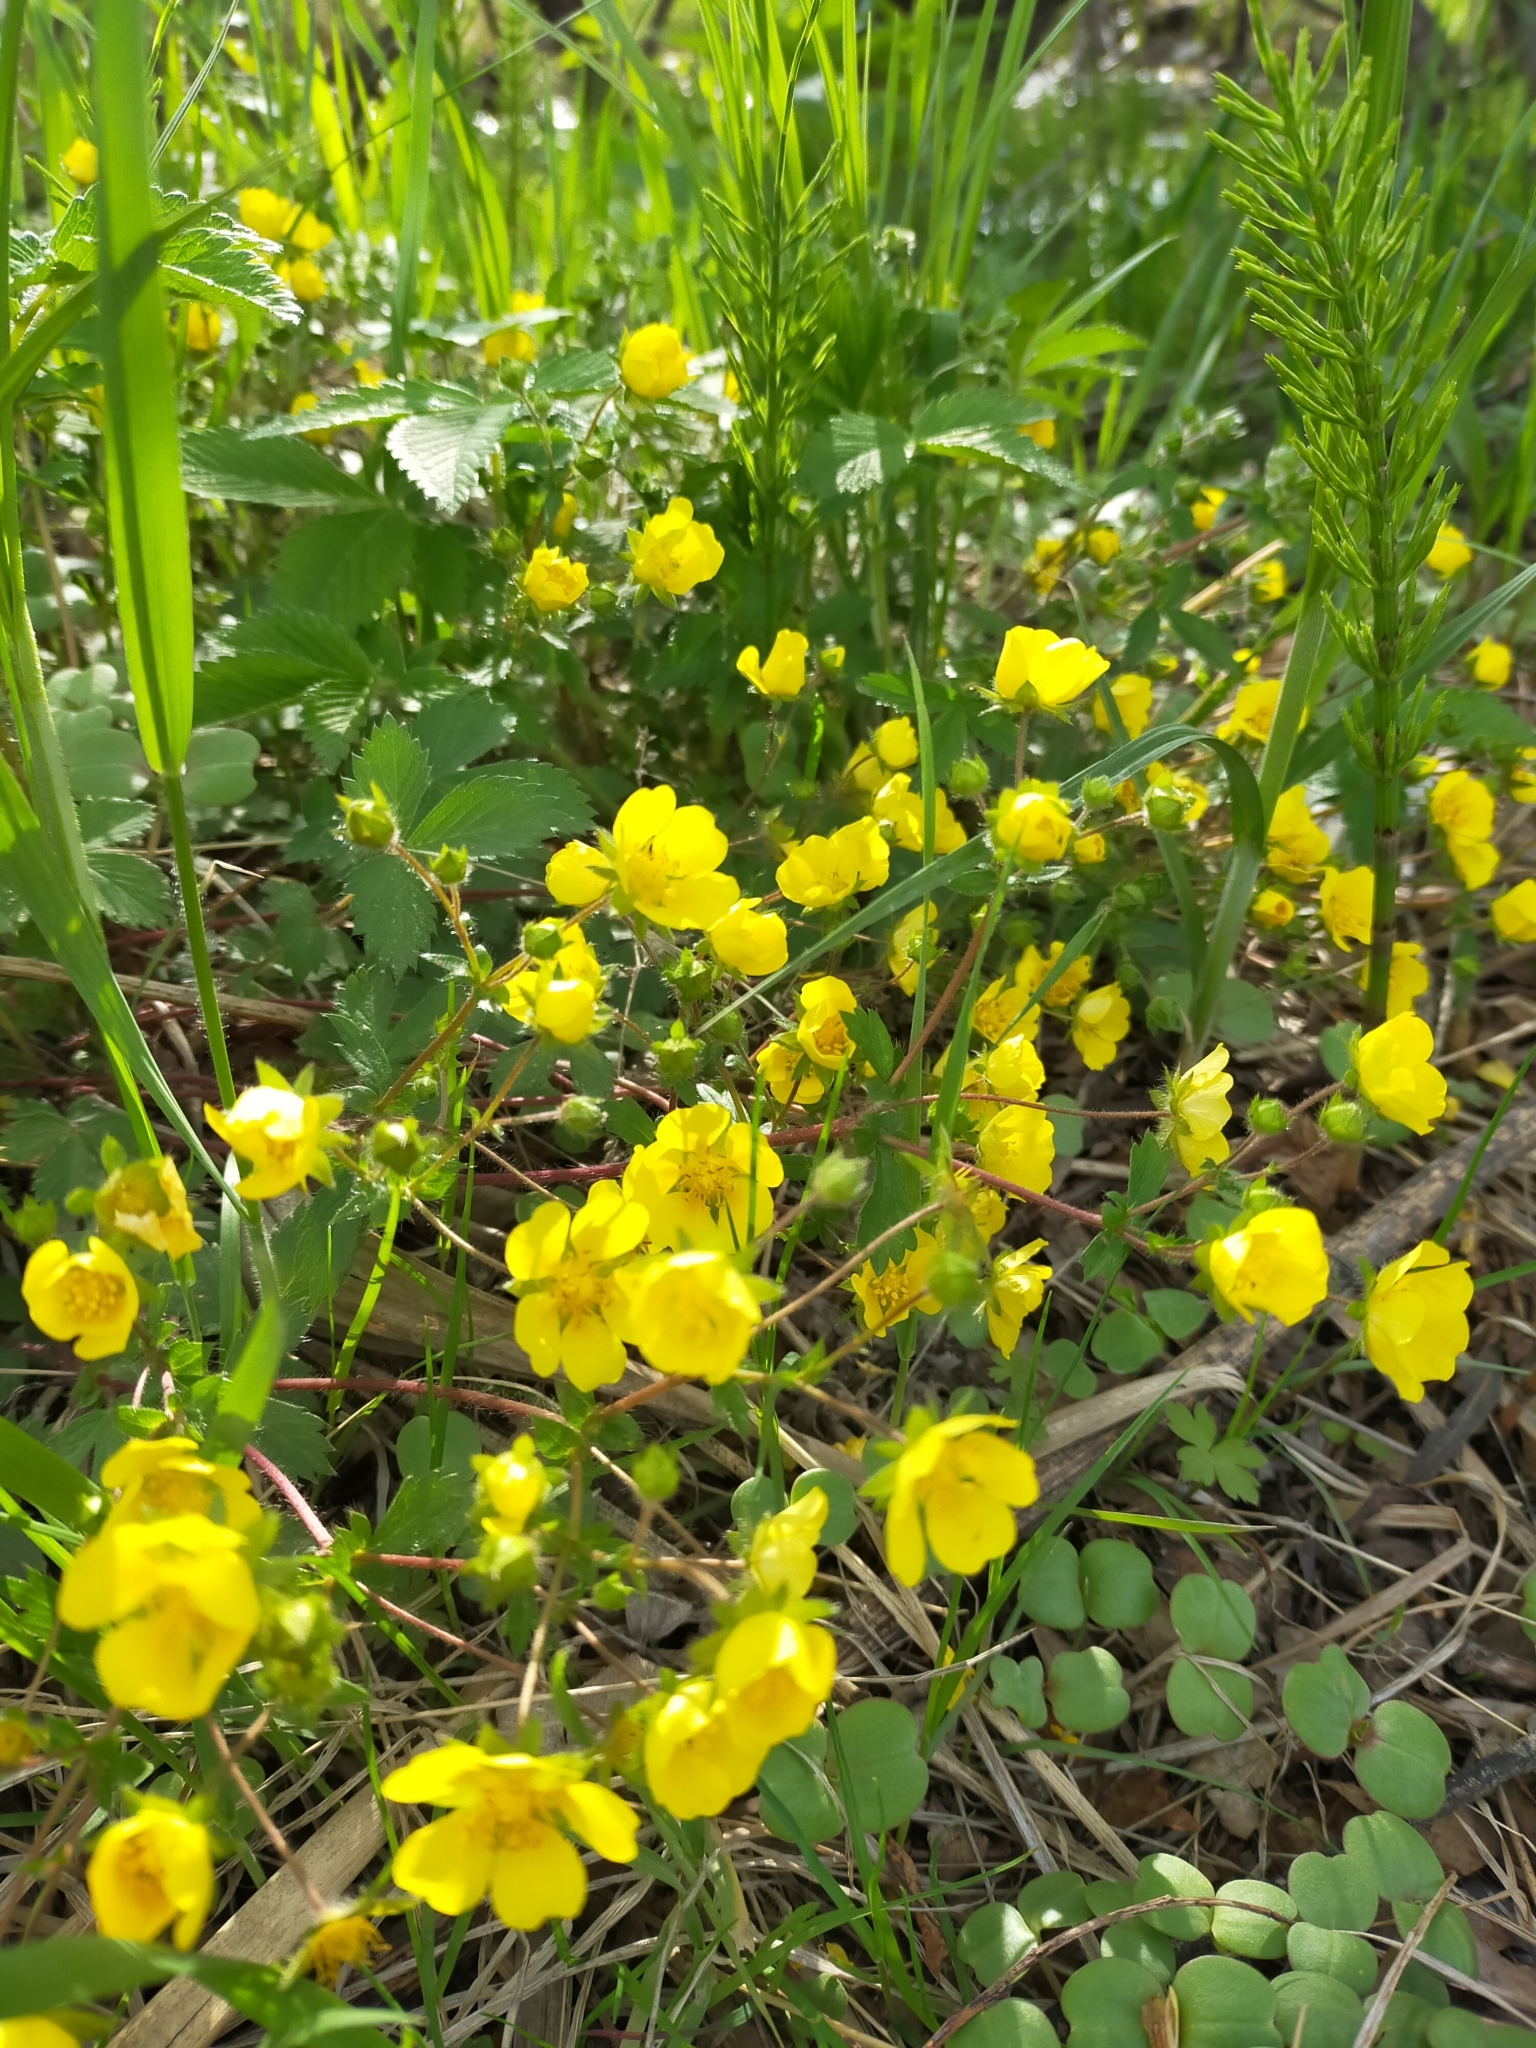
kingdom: Plantae
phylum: Tracheophyta
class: Magnoliopsida
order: Rosales
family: Rosaceae
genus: Potentilla
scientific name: Potentilla fragarioides
